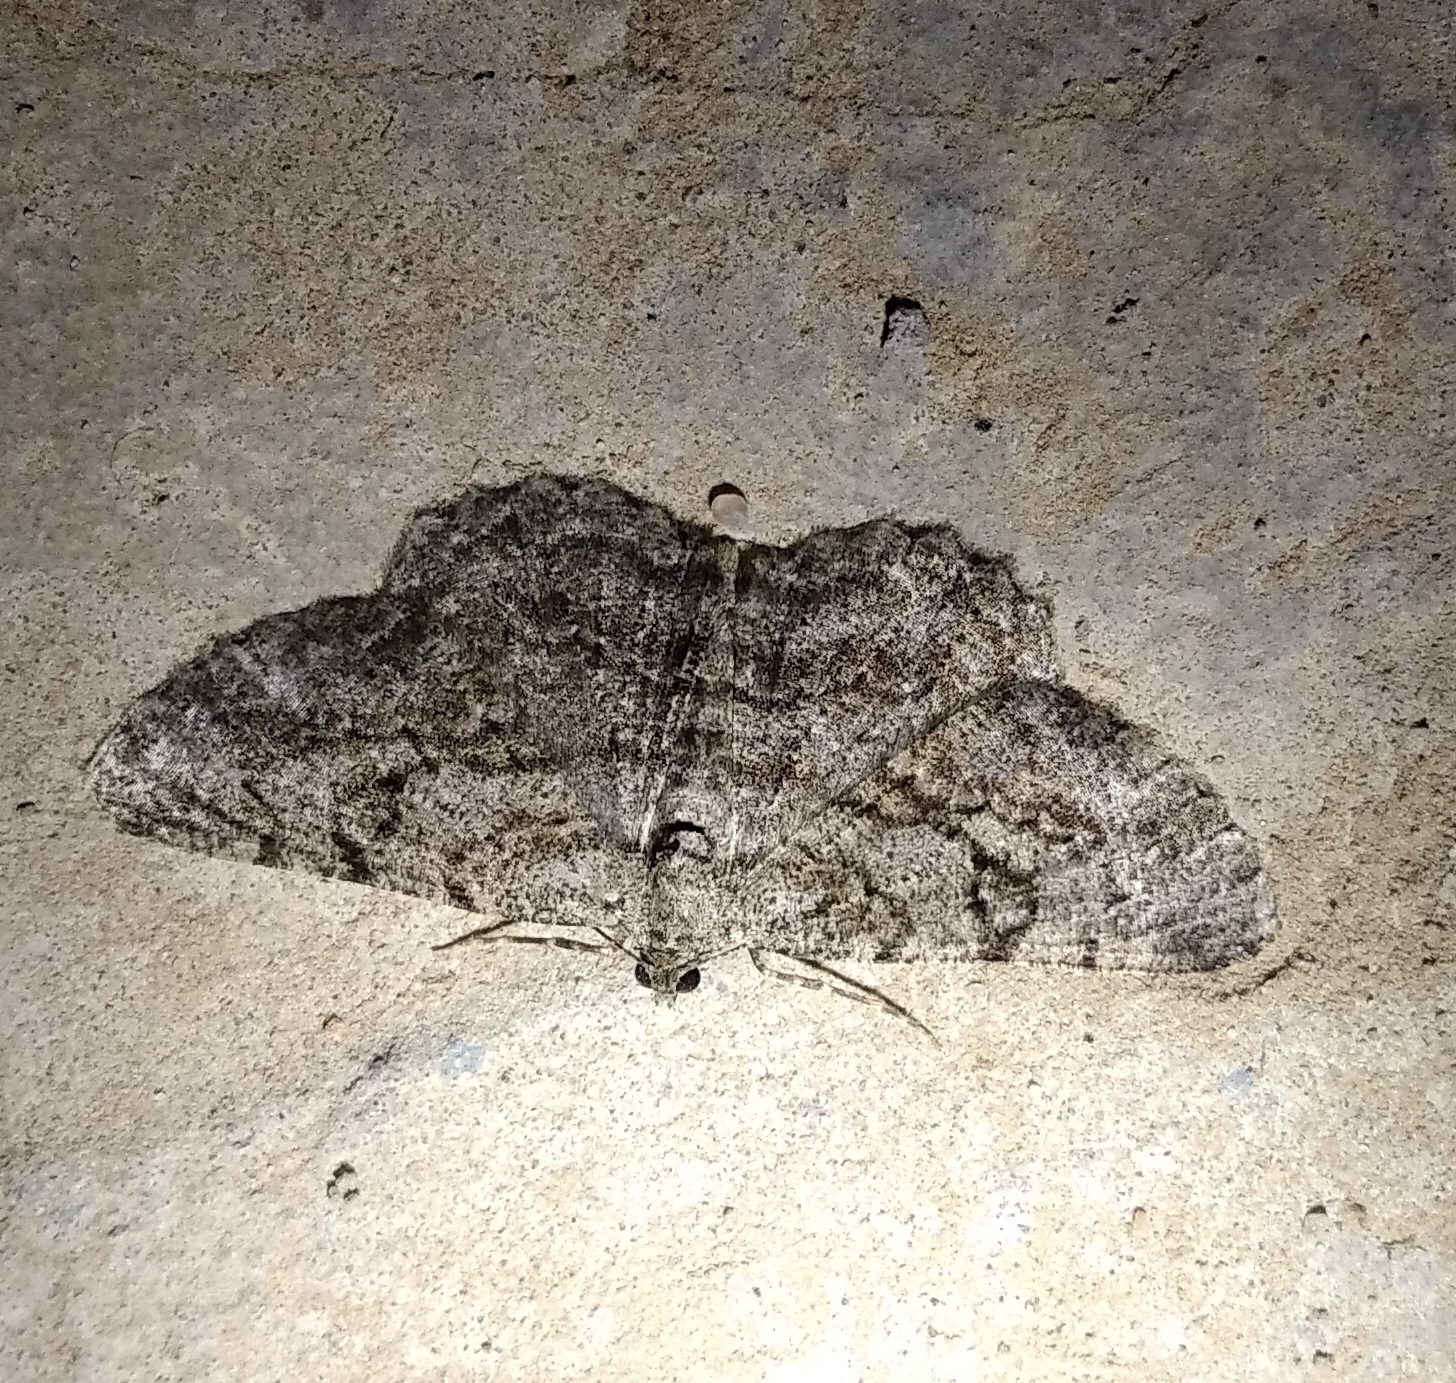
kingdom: Animalia
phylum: Arthropoda
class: Insecta
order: Lepidoptera
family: Geometridae
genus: Peribatodes
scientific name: Peribatodes rhomboidaria
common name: Willow beauty
